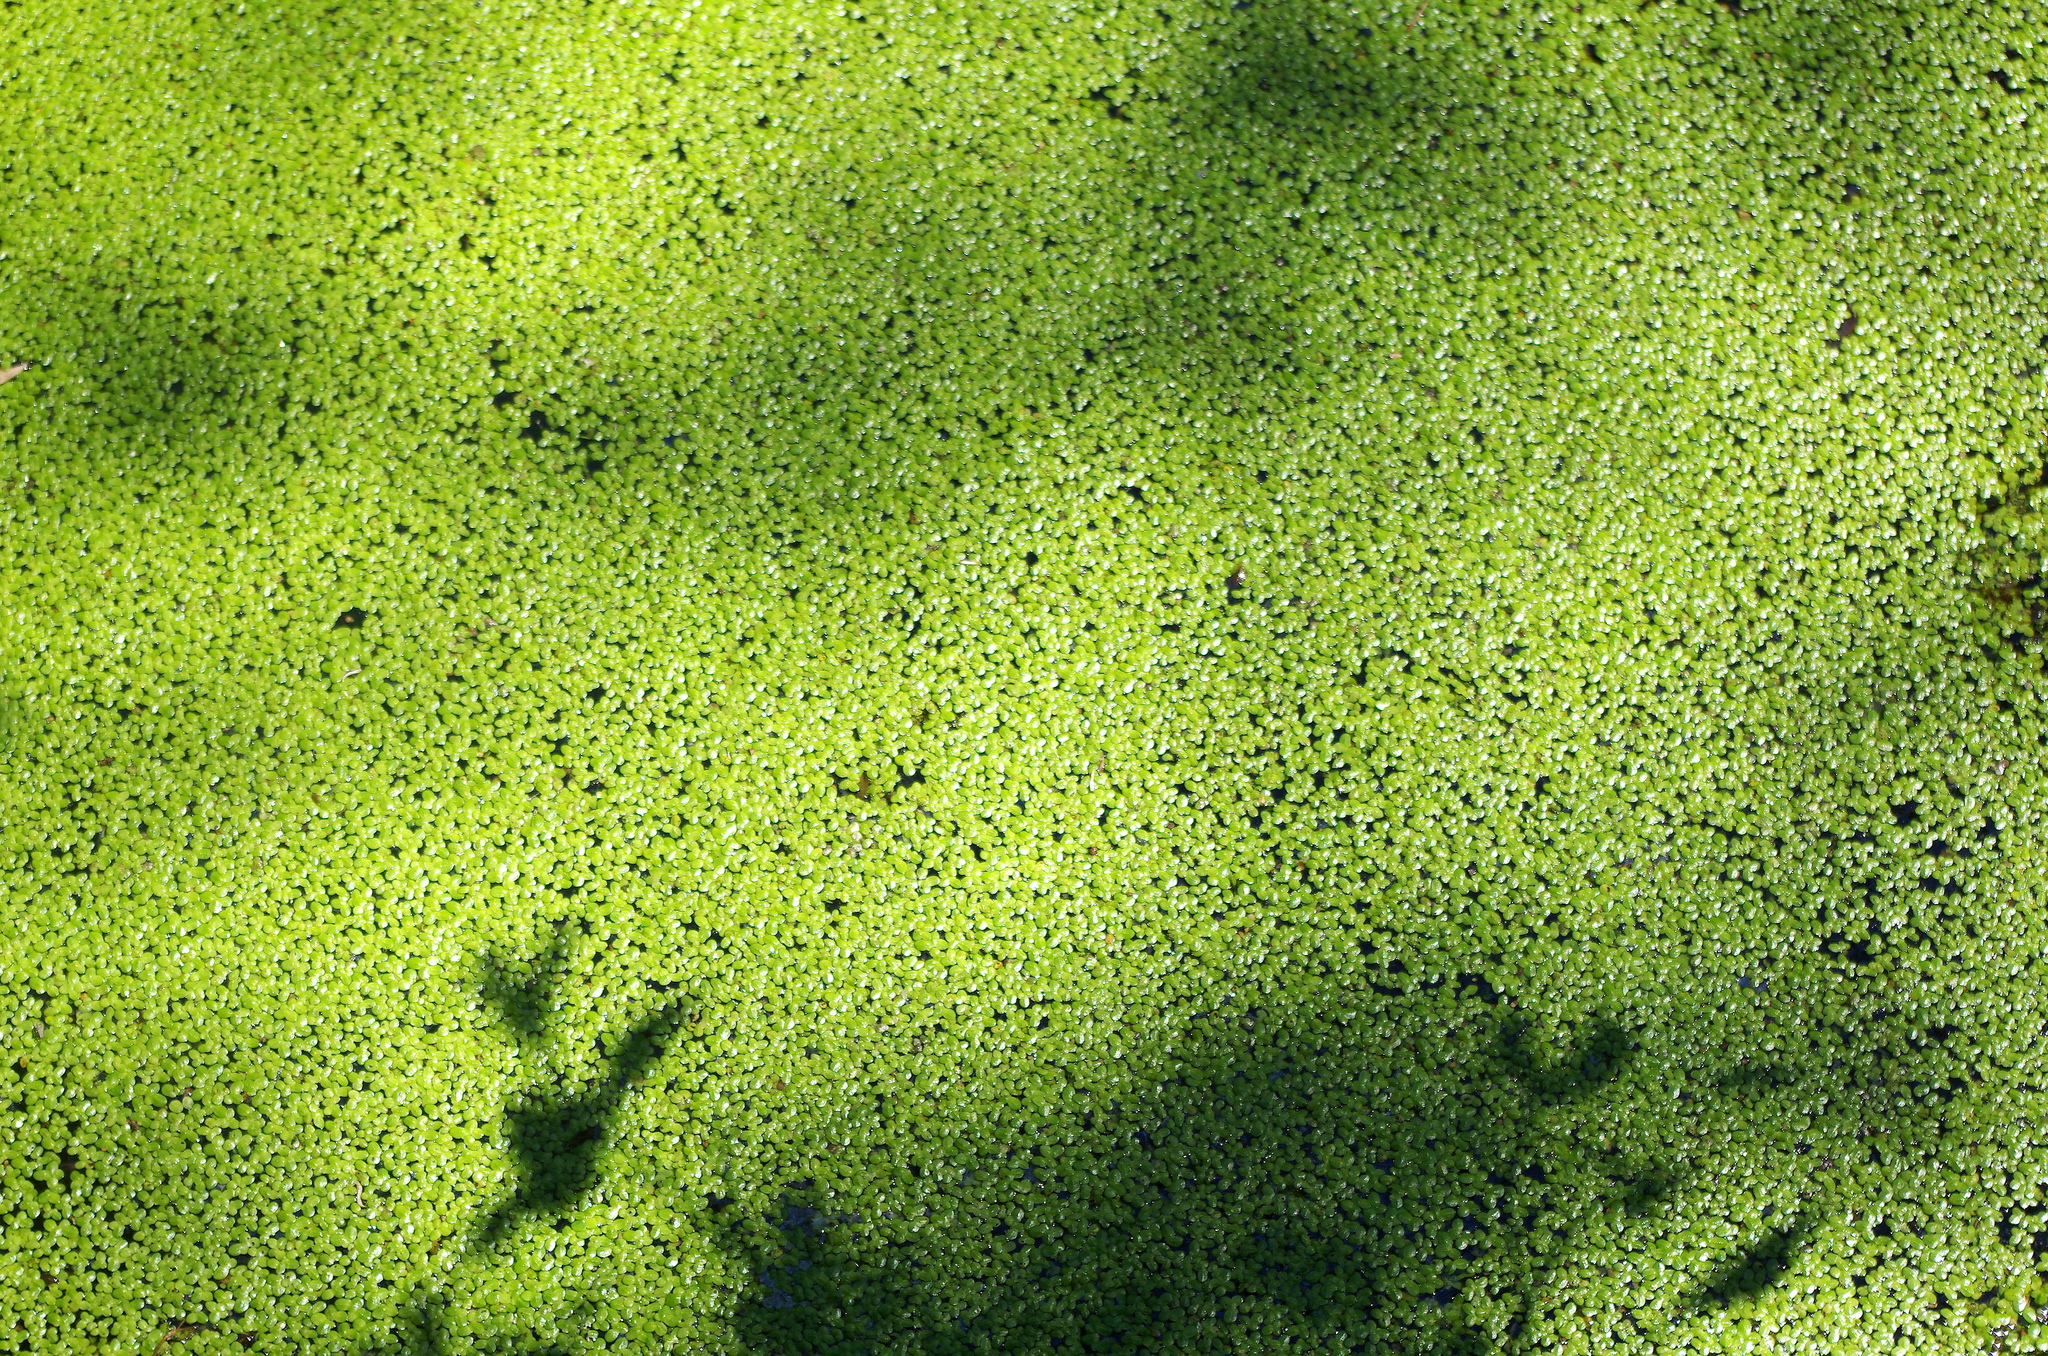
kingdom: Plantae
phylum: Tracheophyta
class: Liliopsida
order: Alismatales
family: Araceae
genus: Lemna
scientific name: Lemna minor
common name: Common duckweed
